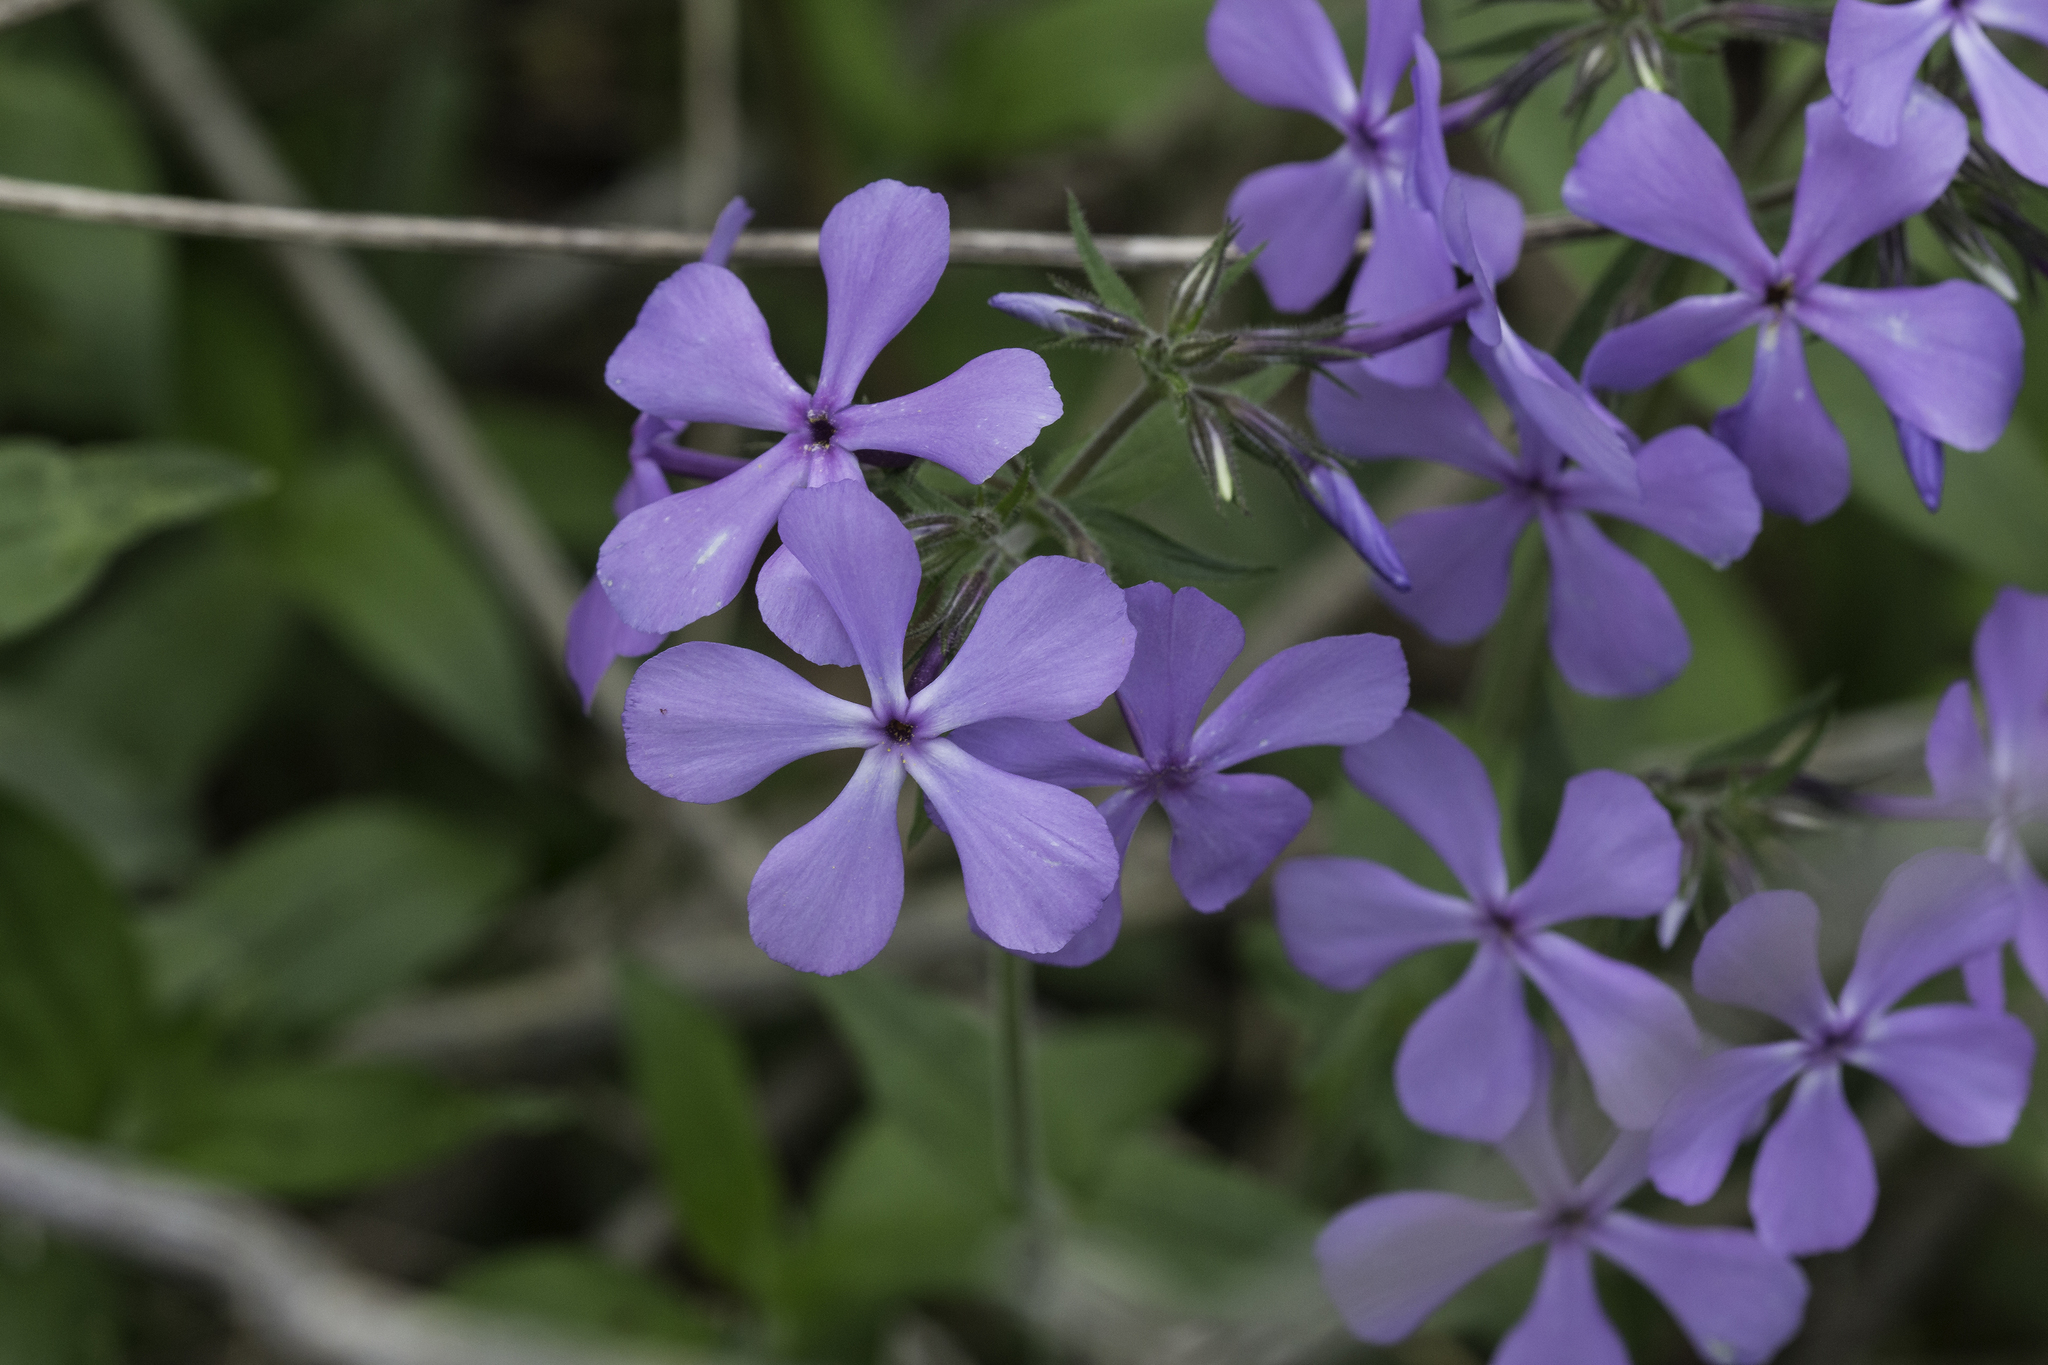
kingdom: Plantae
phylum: Tracheophyta
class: Magnoliopsida
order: Ericales
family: Polemoniaceae
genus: Phlox
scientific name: Phlox divaricata
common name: Blue phlox
